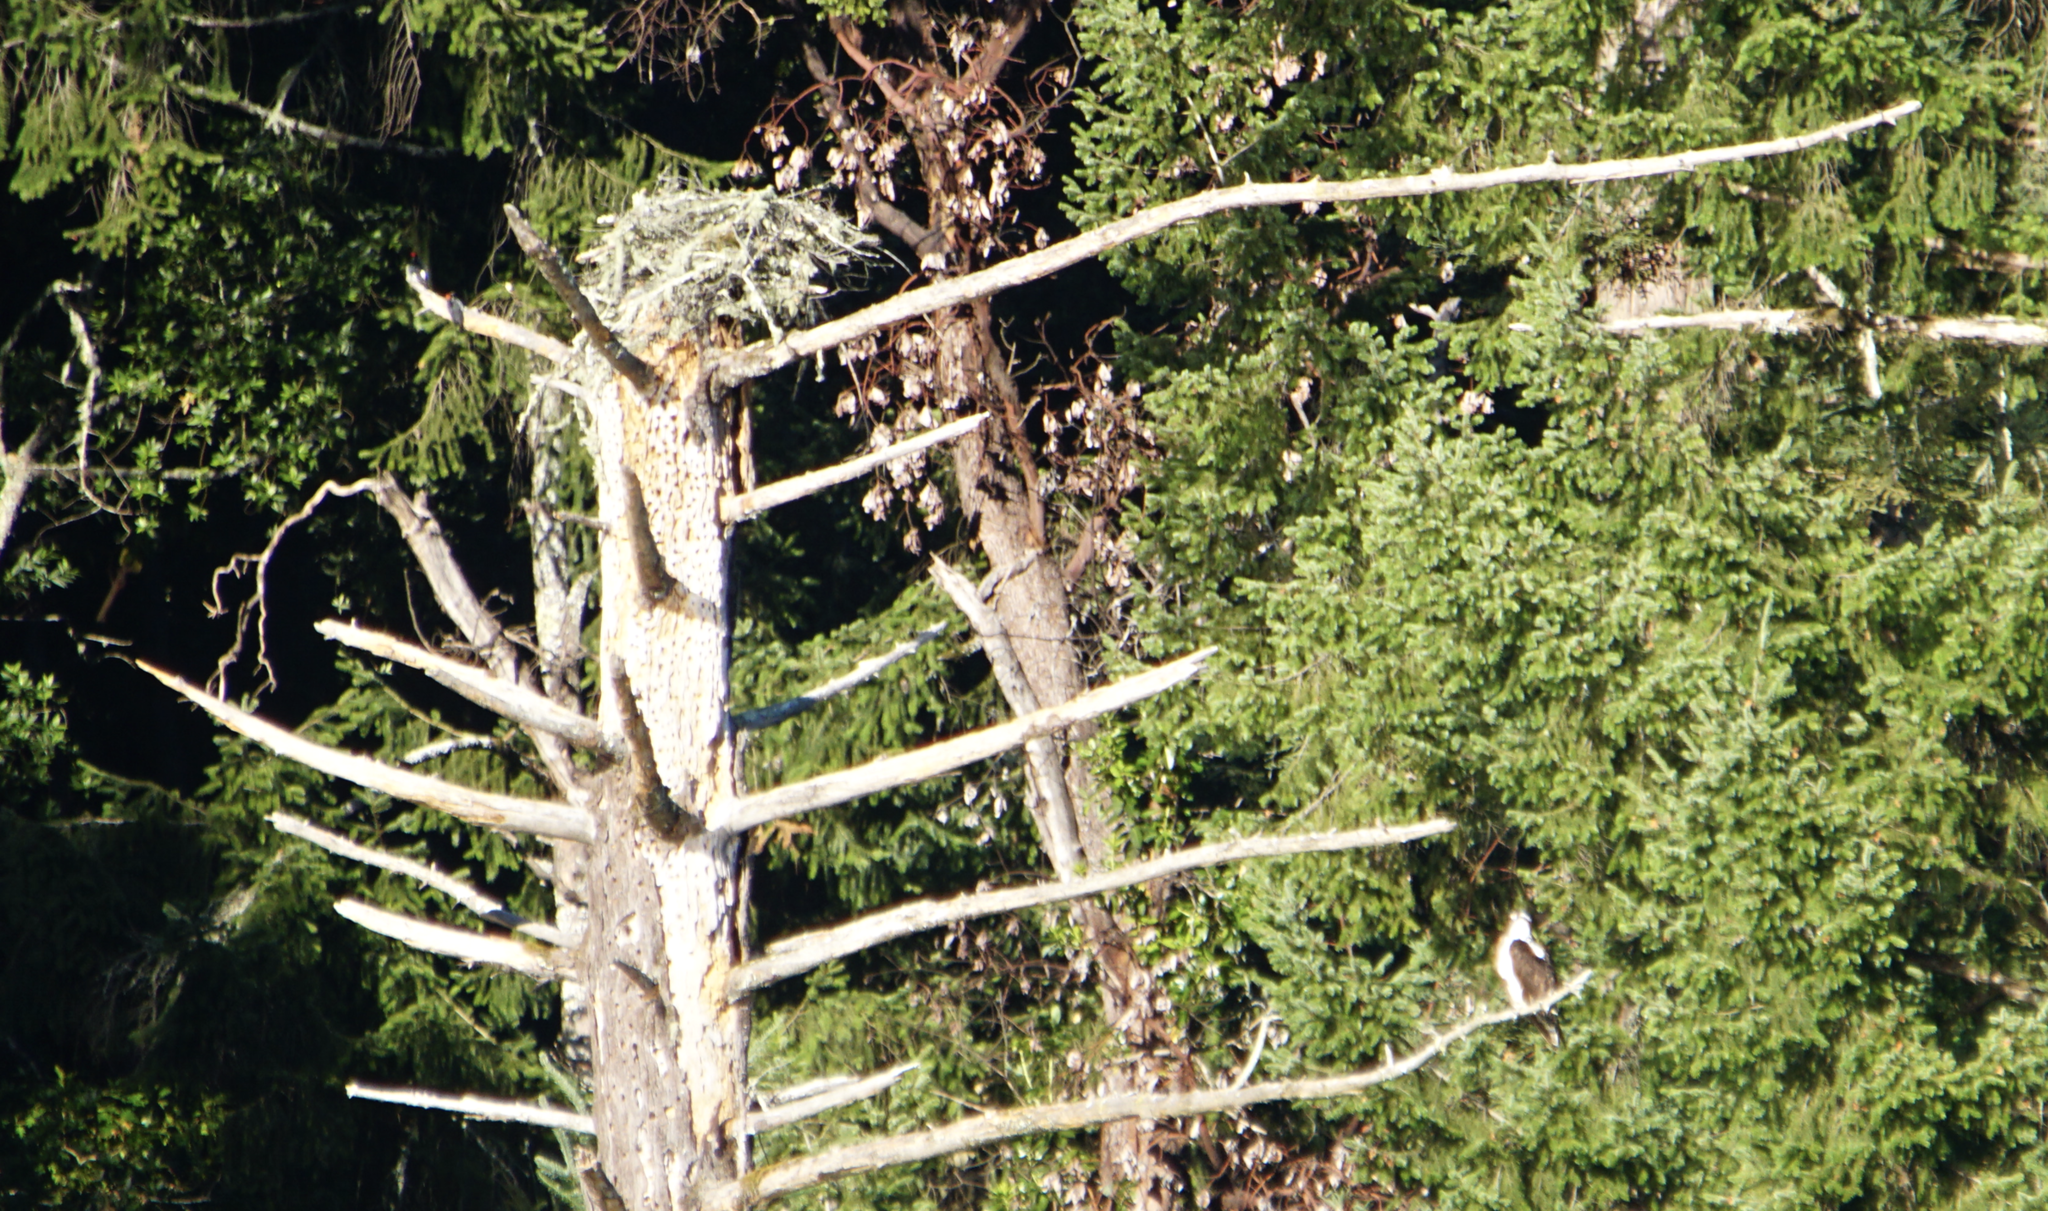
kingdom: Animalia
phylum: Chordata
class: Aves
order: Accipitriformes
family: Pandionidae
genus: Pandion
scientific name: Pandion haliaetus
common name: Osprey
